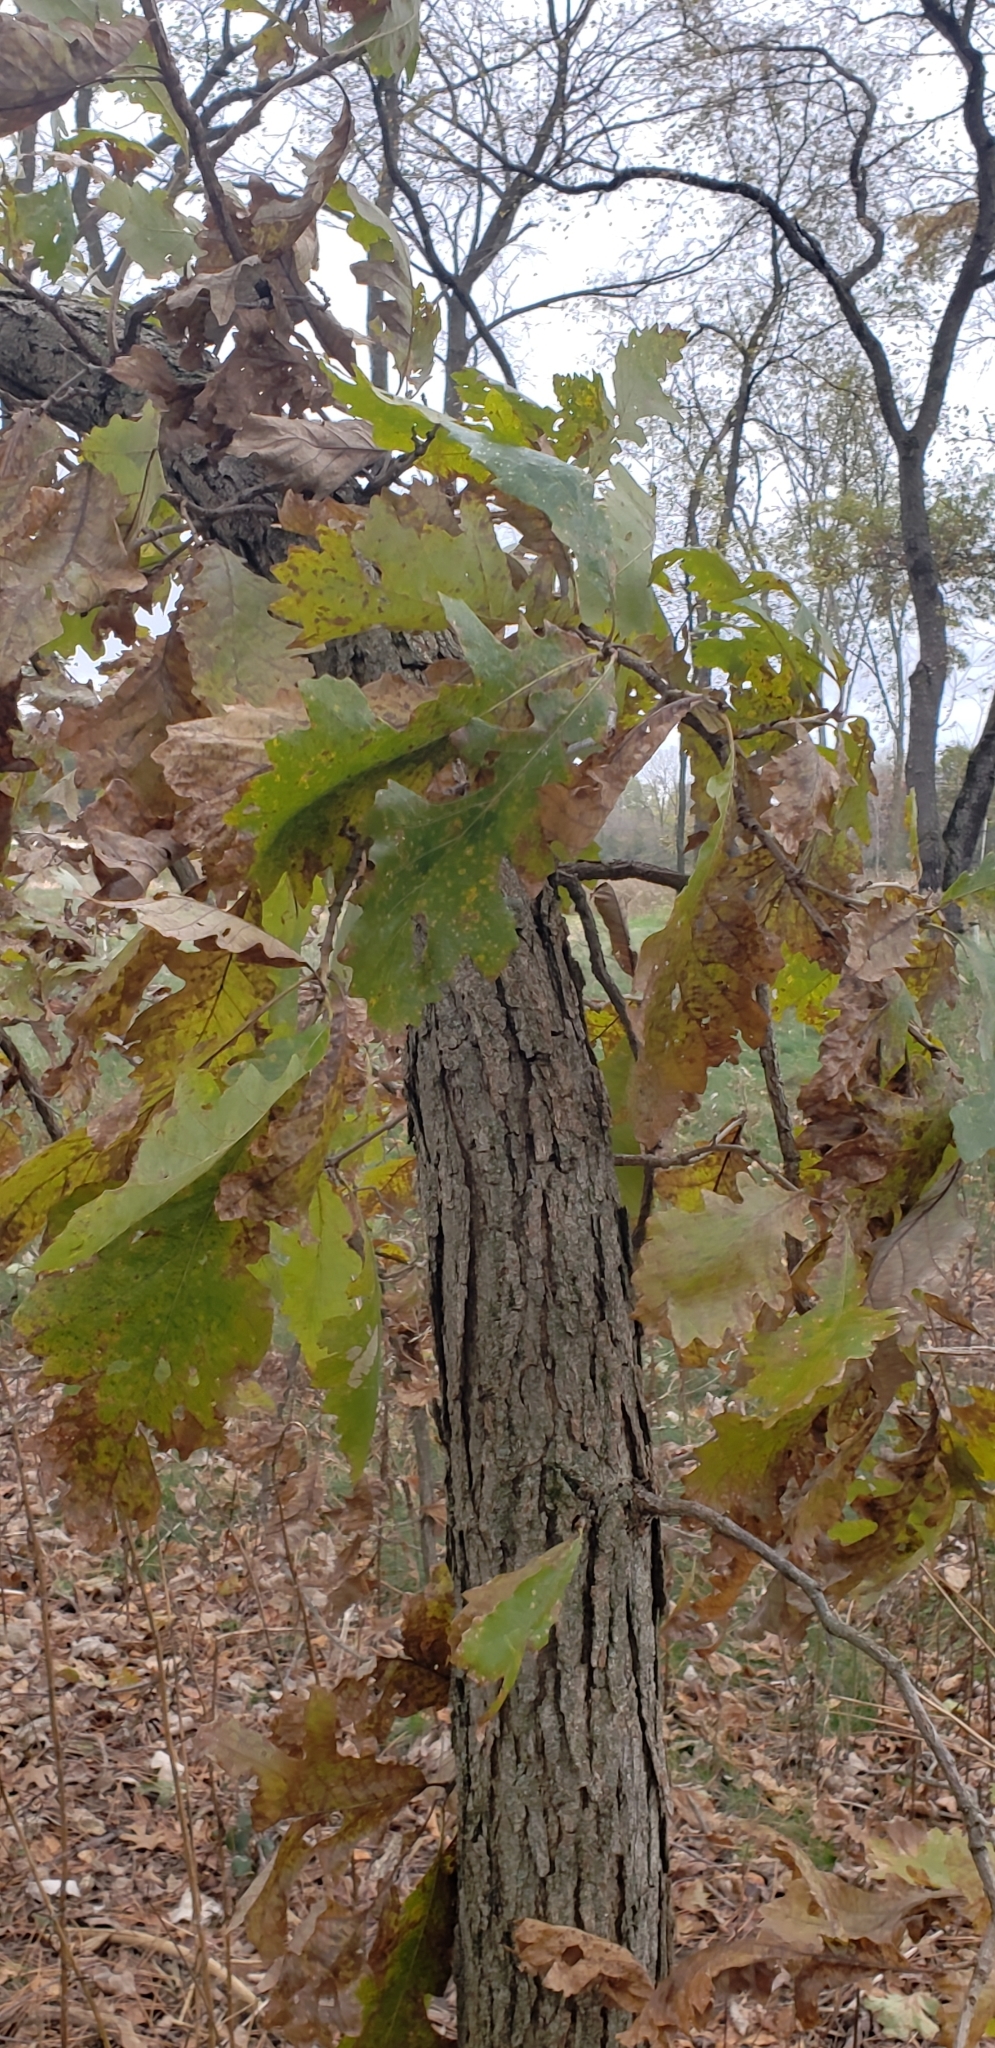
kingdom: Plantae
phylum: Tracheophyta
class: Magnoliopsida
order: Fagales
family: Fagaceae
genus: Quercus
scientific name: Quercus macrocarpa
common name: Bur oak
